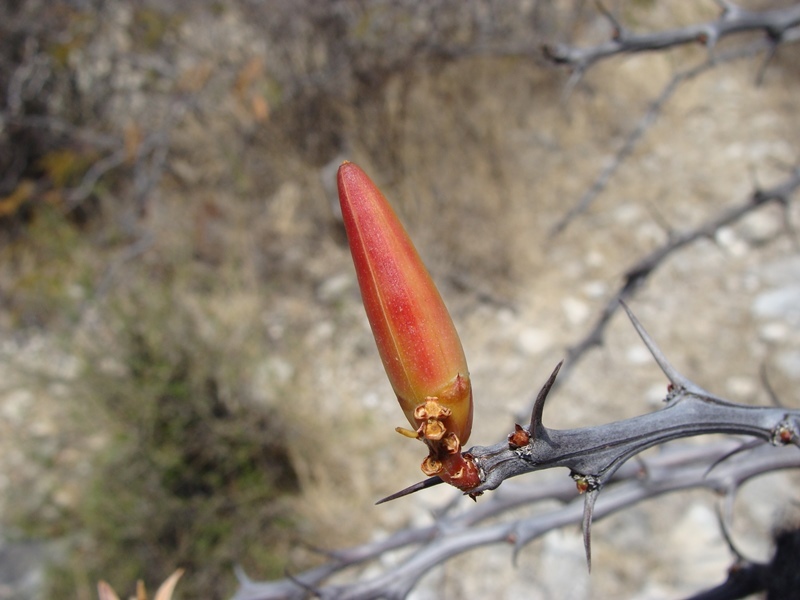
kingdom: Plantae
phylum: Tracheophyta
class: Magnoliopsida
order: Ericales
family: Fouquieriaceae
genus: Fouquieria
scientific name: Fouquieria formosa
